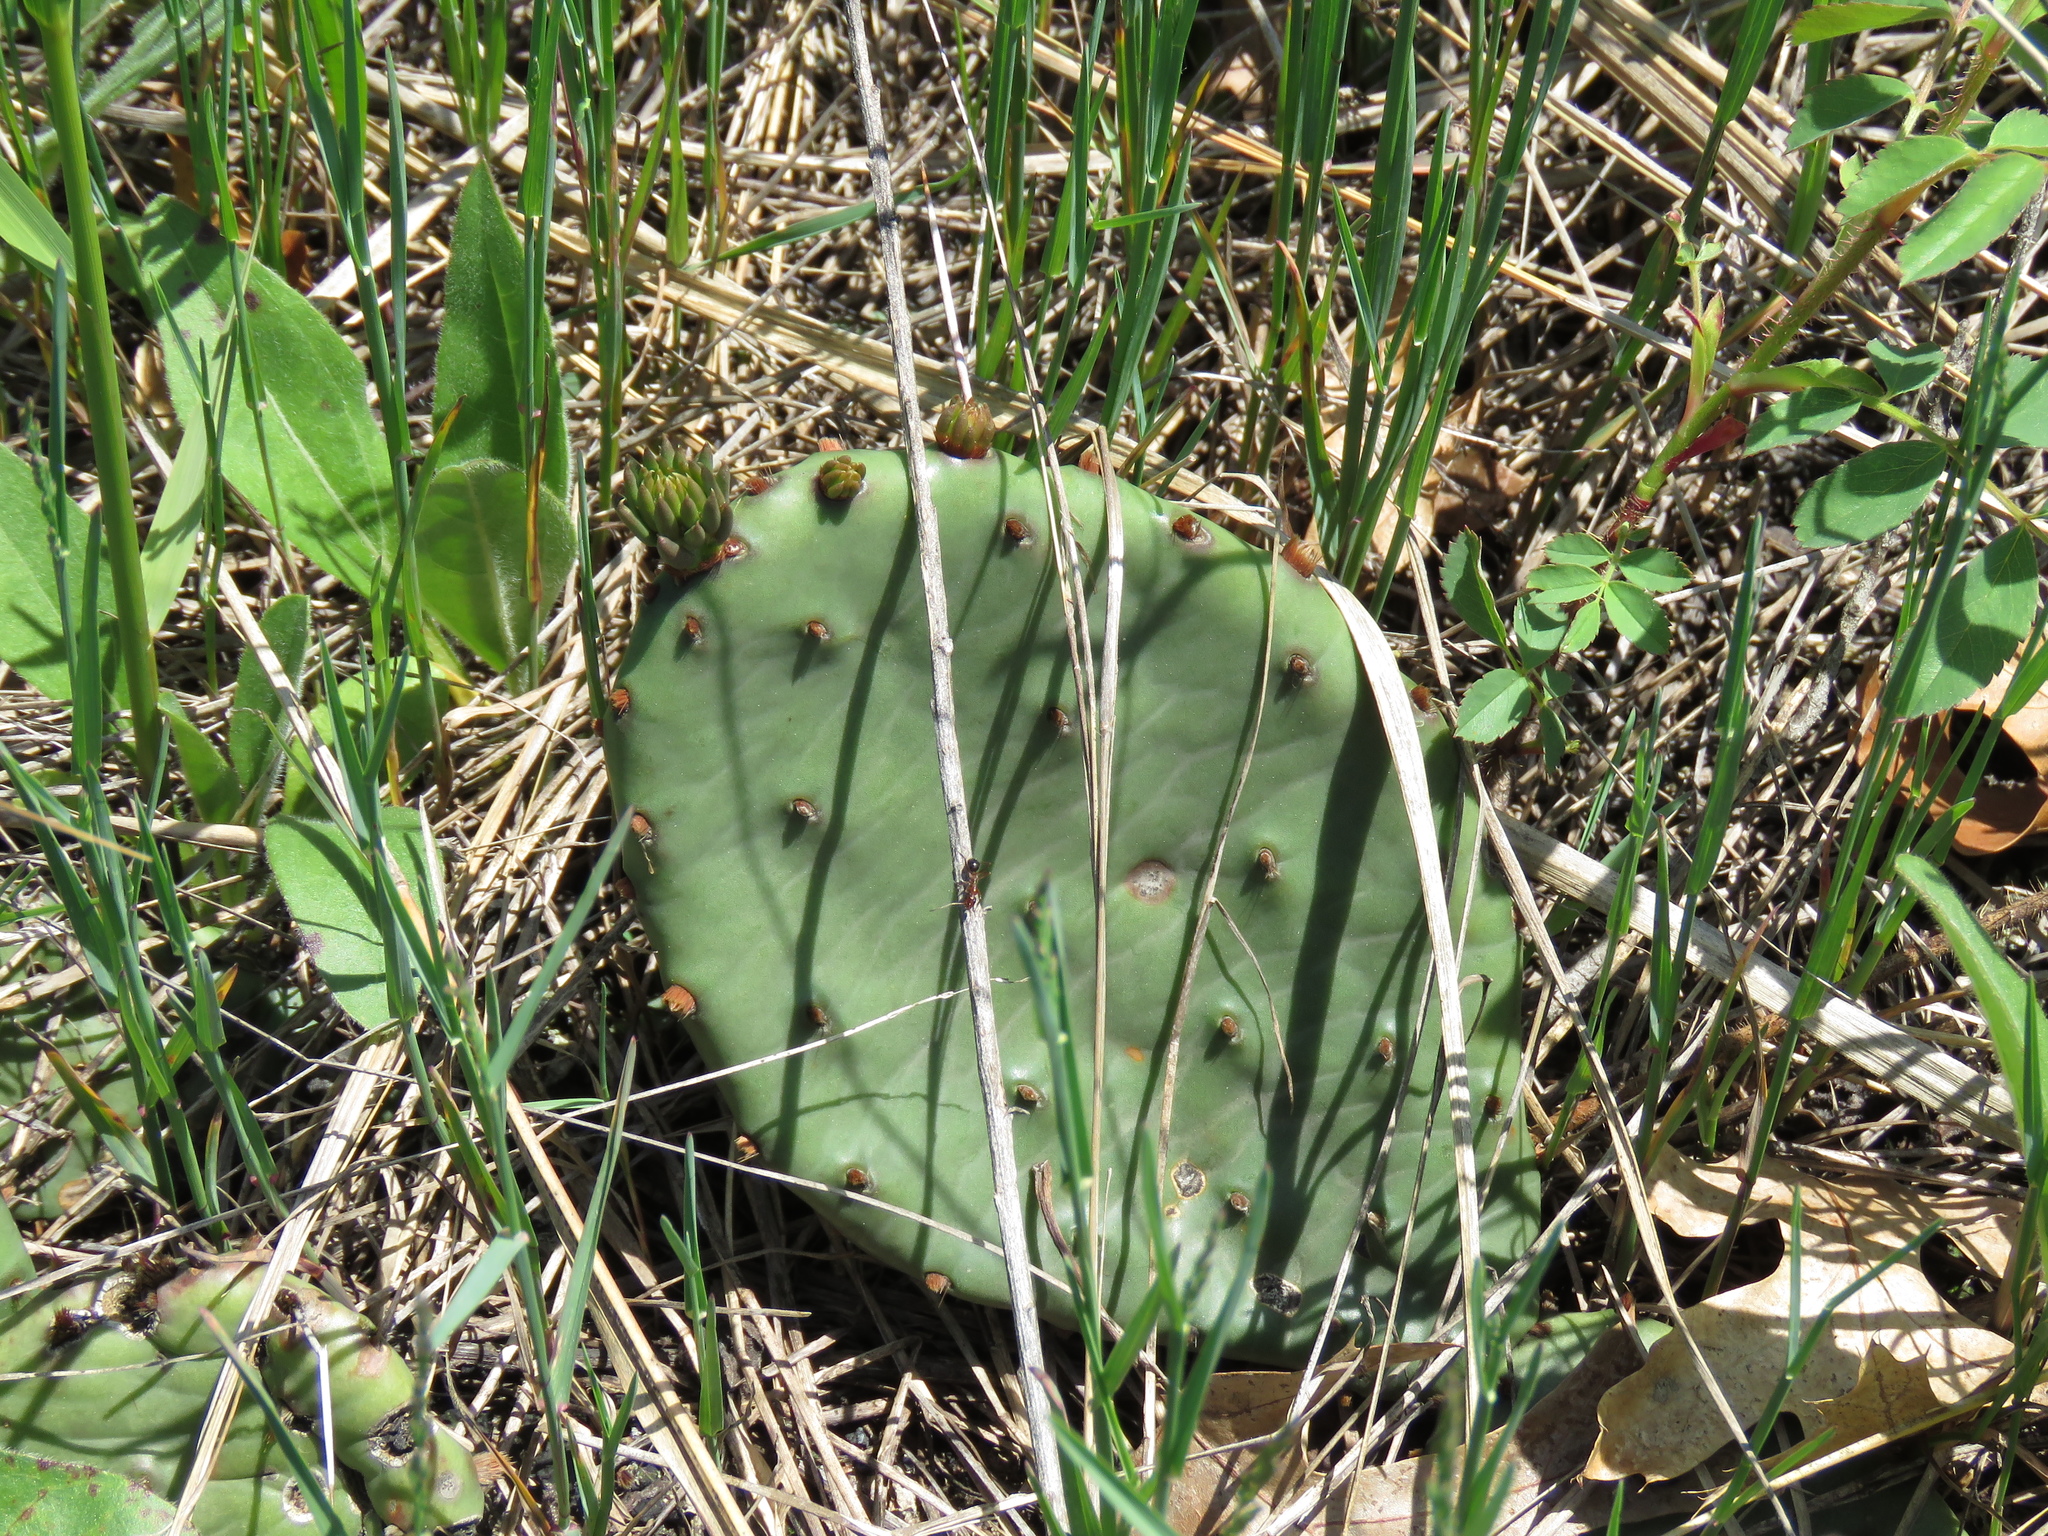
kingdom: Plantae
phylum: Tracheophyta
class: Magnoliopsida
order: Caryophyllales
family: Cactaceae
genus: Opuntia
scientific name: Opuntia humifusa
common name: Eastern prickly-pear
